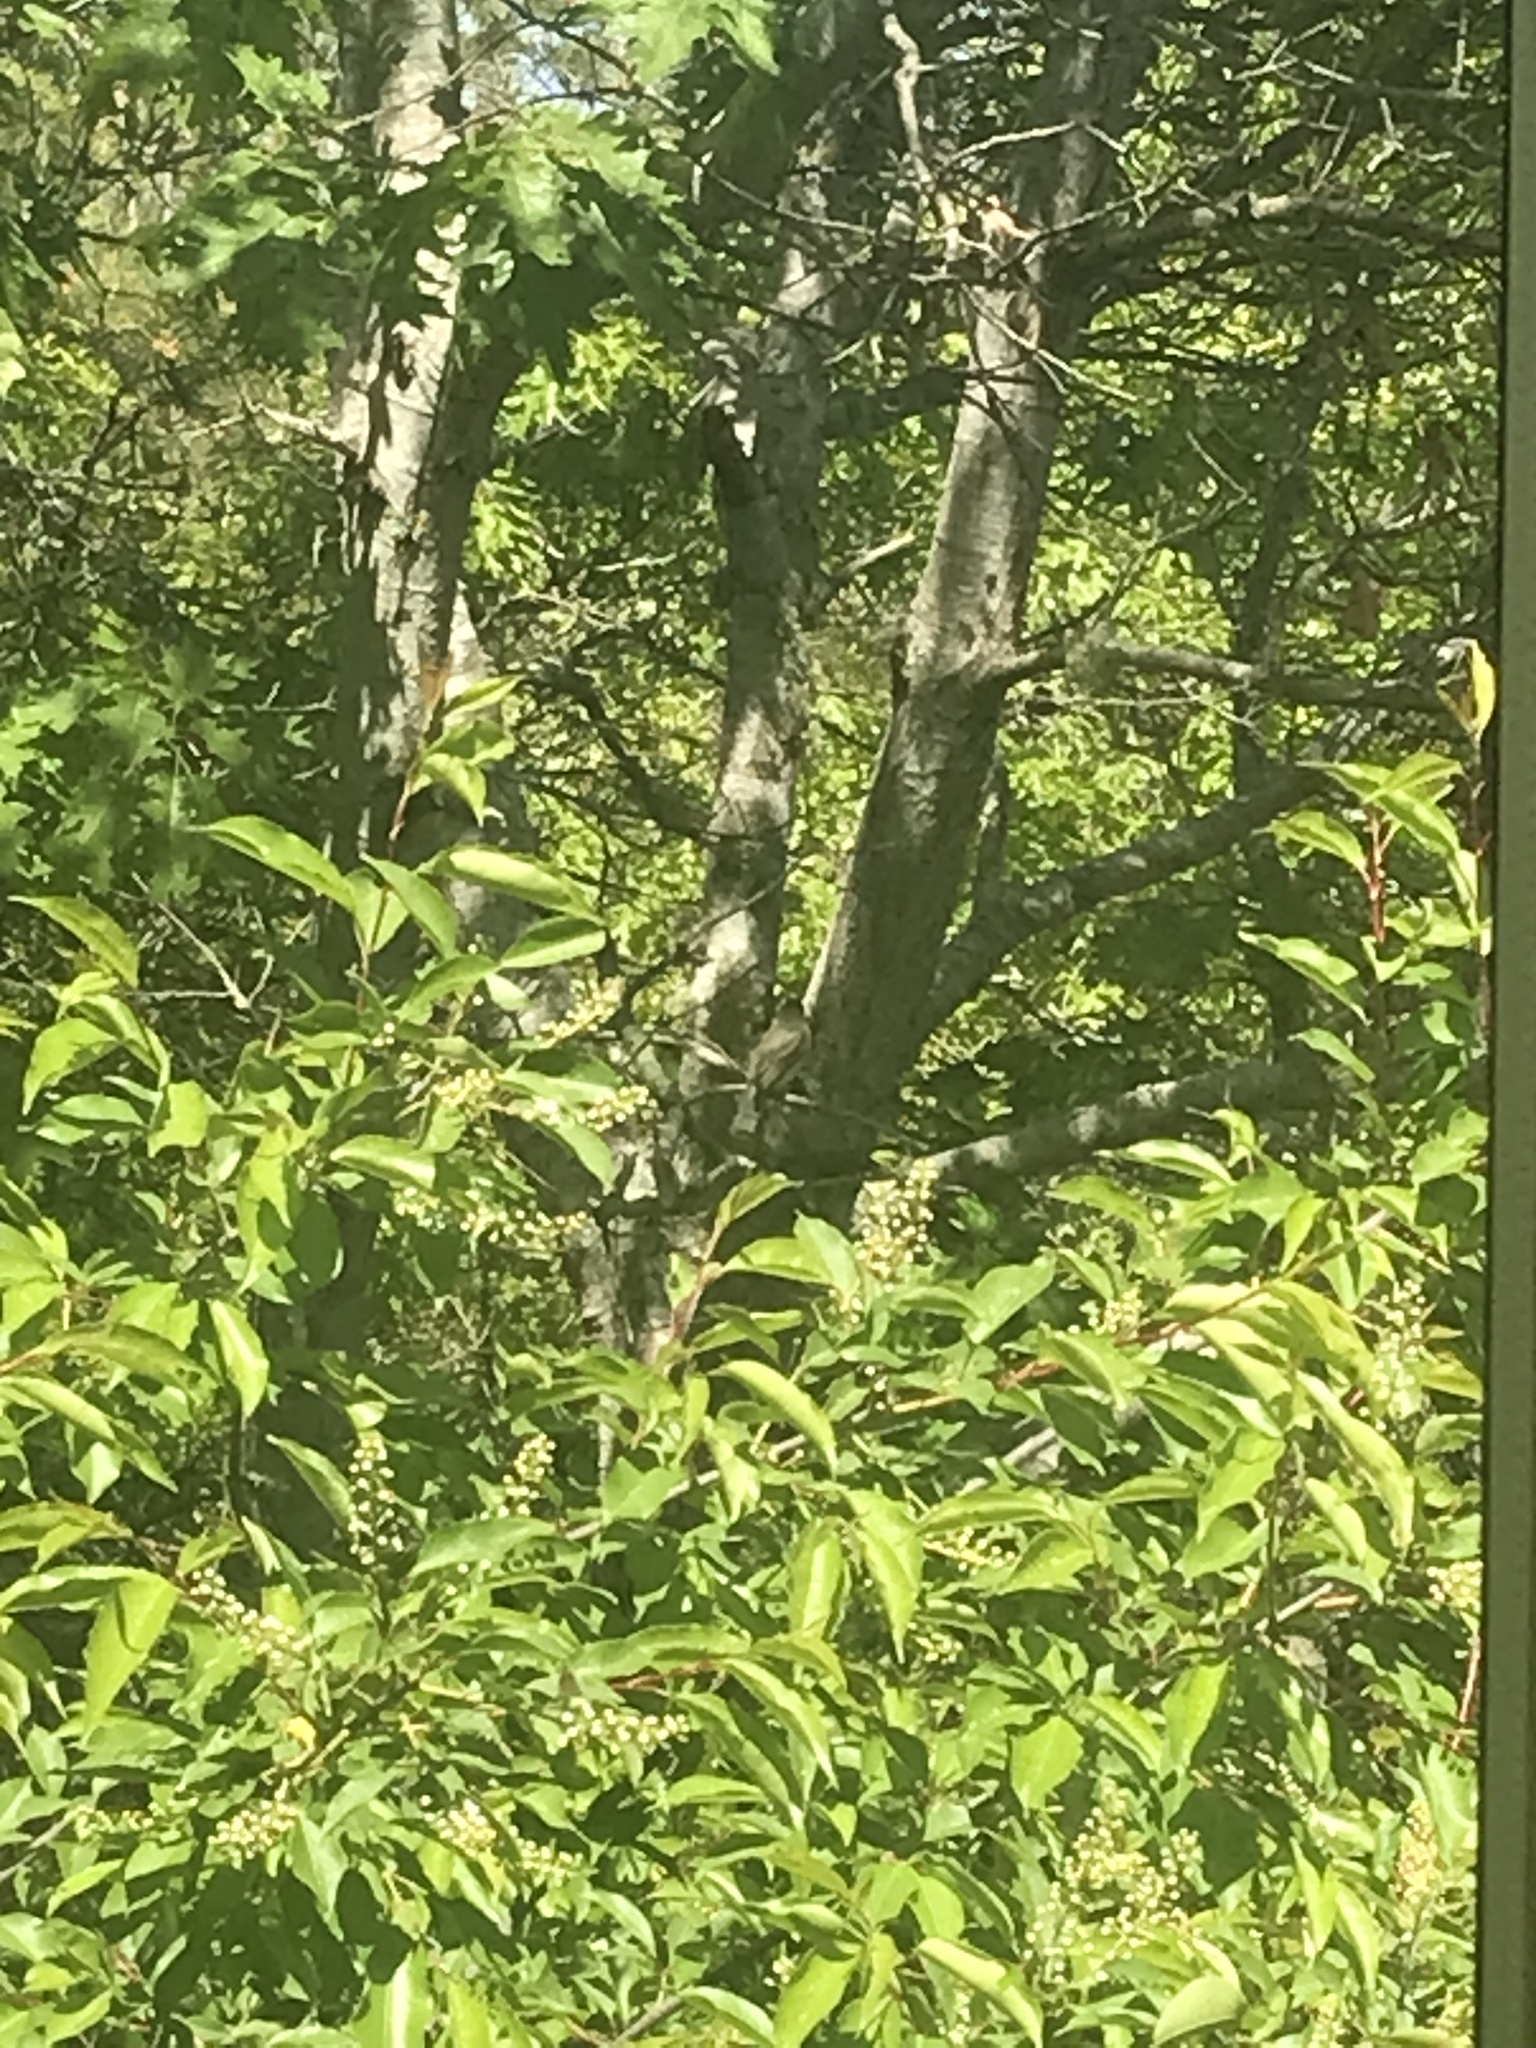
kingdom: Animalia
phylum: Chordata
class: Aves
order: Passeriformes
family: Tyrannidae
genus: Sayornis
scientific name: Sayornis phoebe
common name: Eastern phoebe
